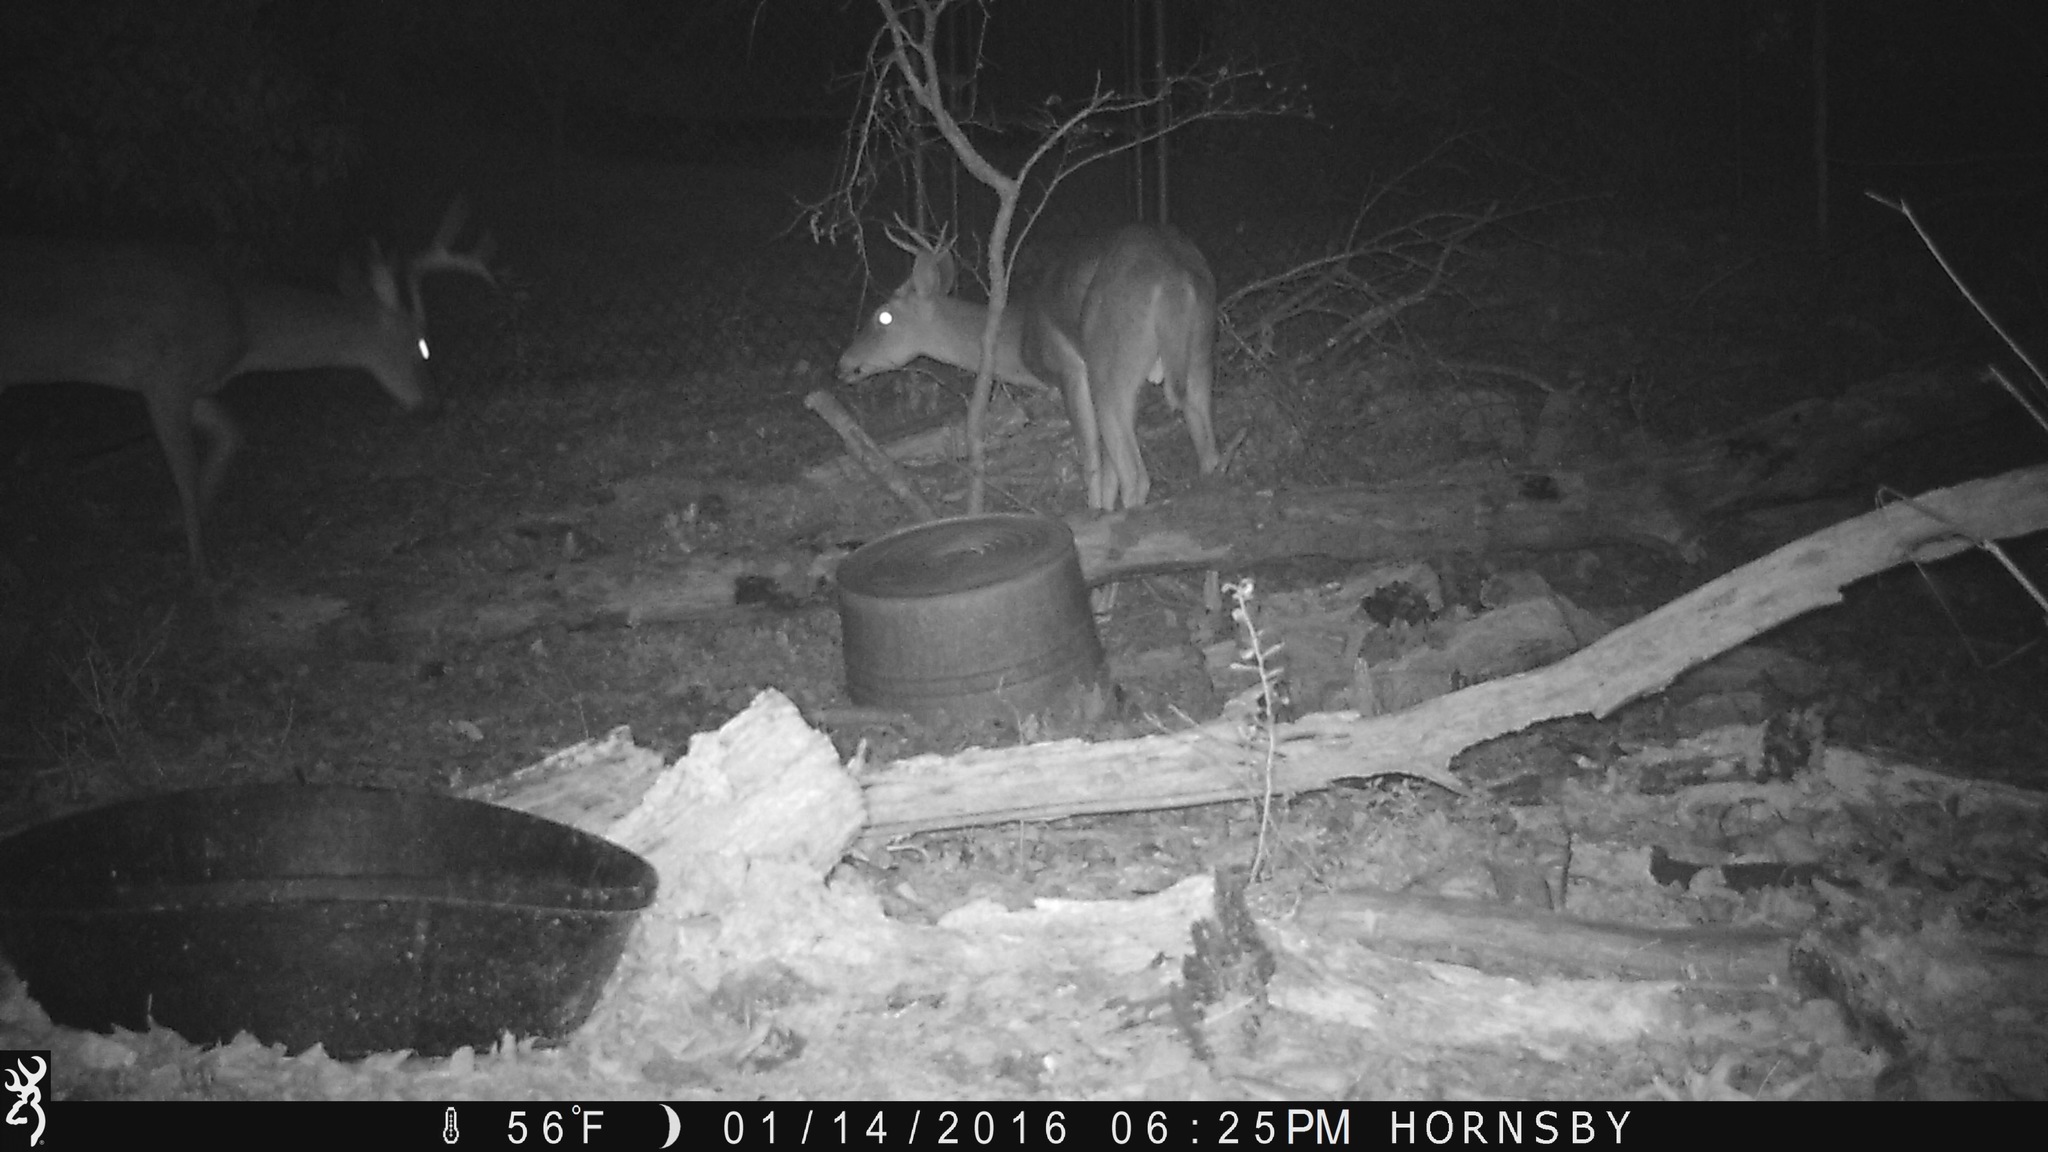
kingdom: Animalia
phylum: Chordata
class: Mammalia
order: Artiodactyla
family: Cervidae
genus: Odocoileus
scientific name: Odocoileus virginianus
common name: White-tailed deer
